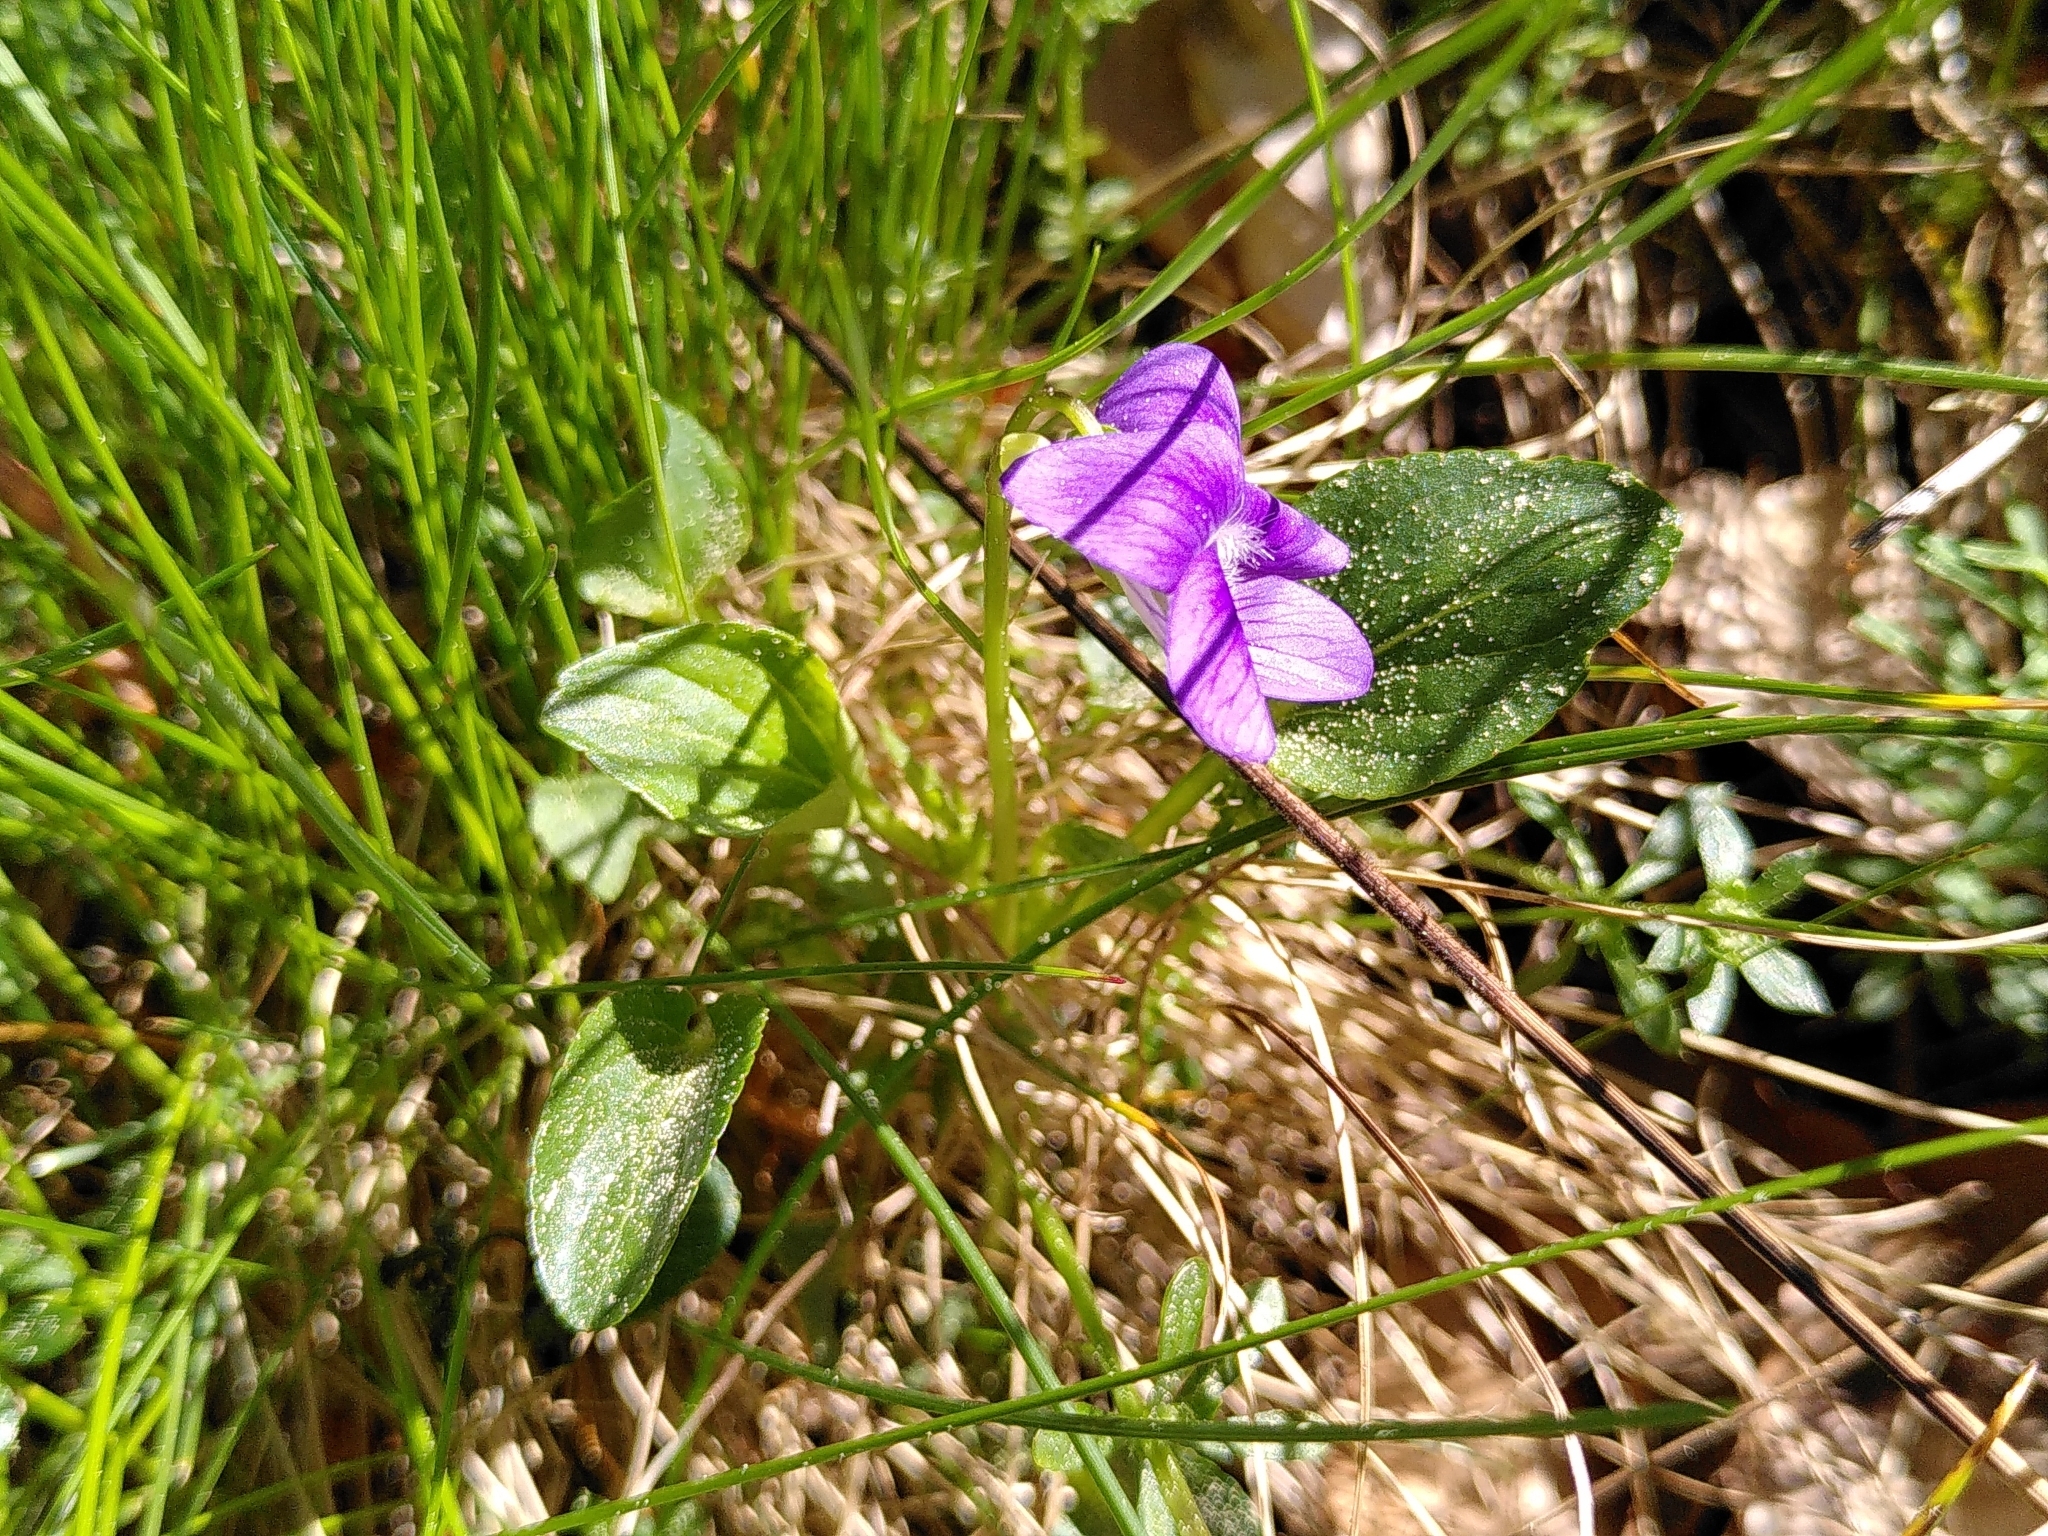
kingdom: Plantae
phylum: Tracheophyta
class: Magnoliopsida
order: Malpighiales
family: Violaceae
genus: Viola
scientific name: Viola riviniana
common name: Common dog-violet
